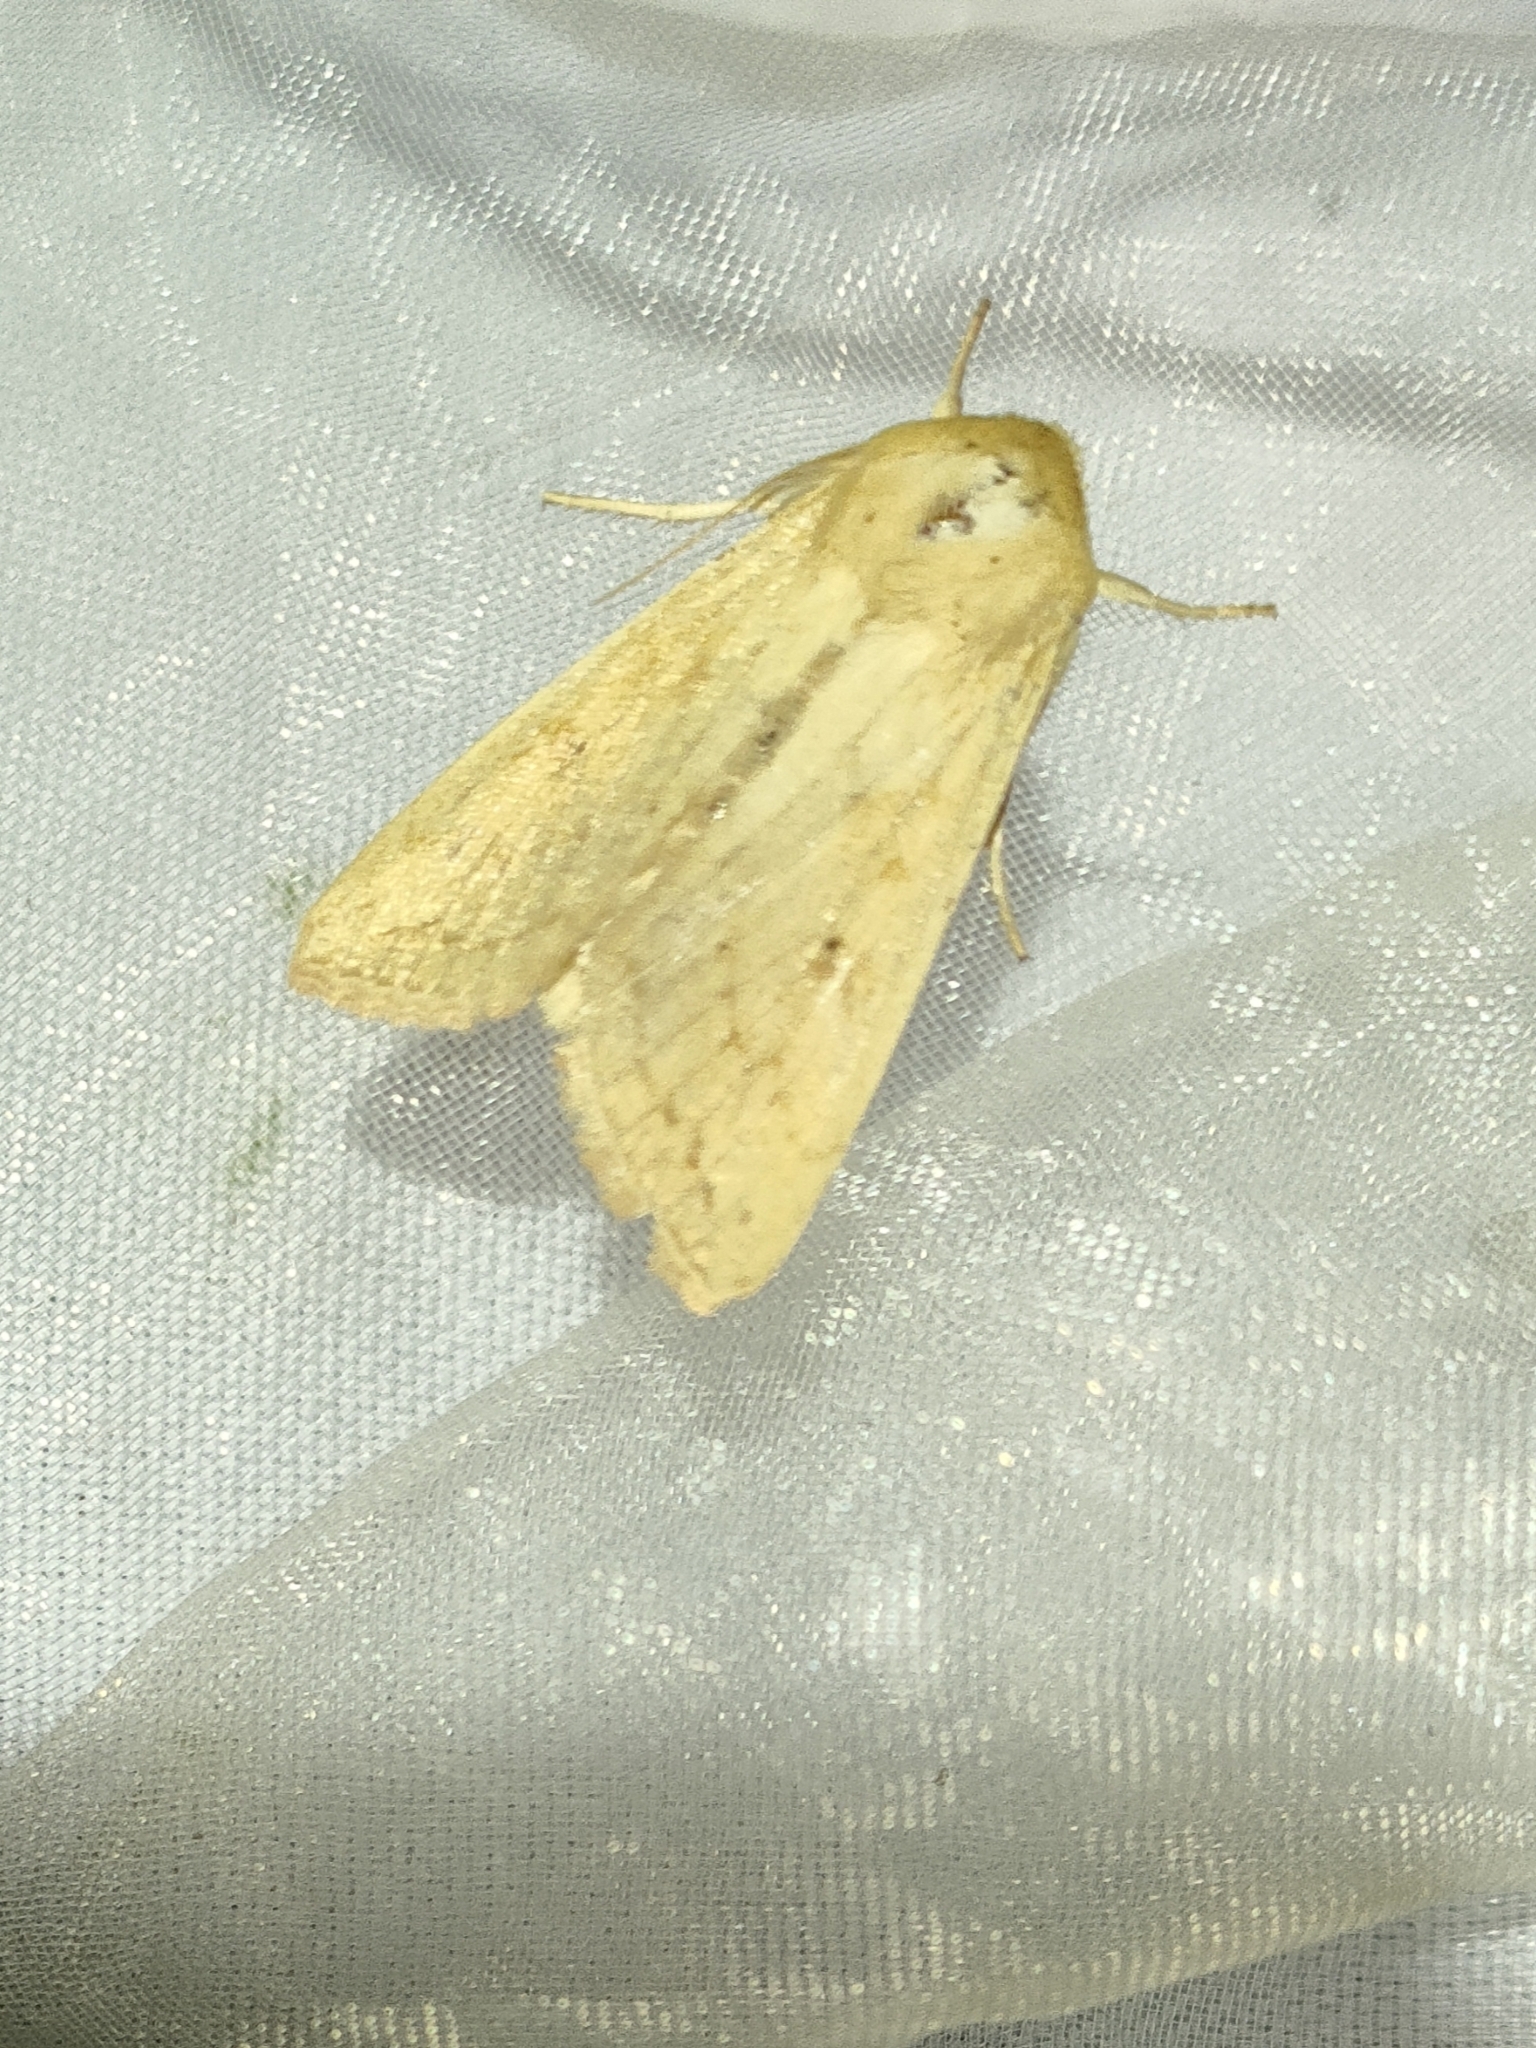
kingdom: Animalia
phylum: Arthropoda
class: Insecta
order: Lepidoptera
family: Noctuidae
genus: Mythimna
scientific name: Mythimna vitellina
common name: Delicate
